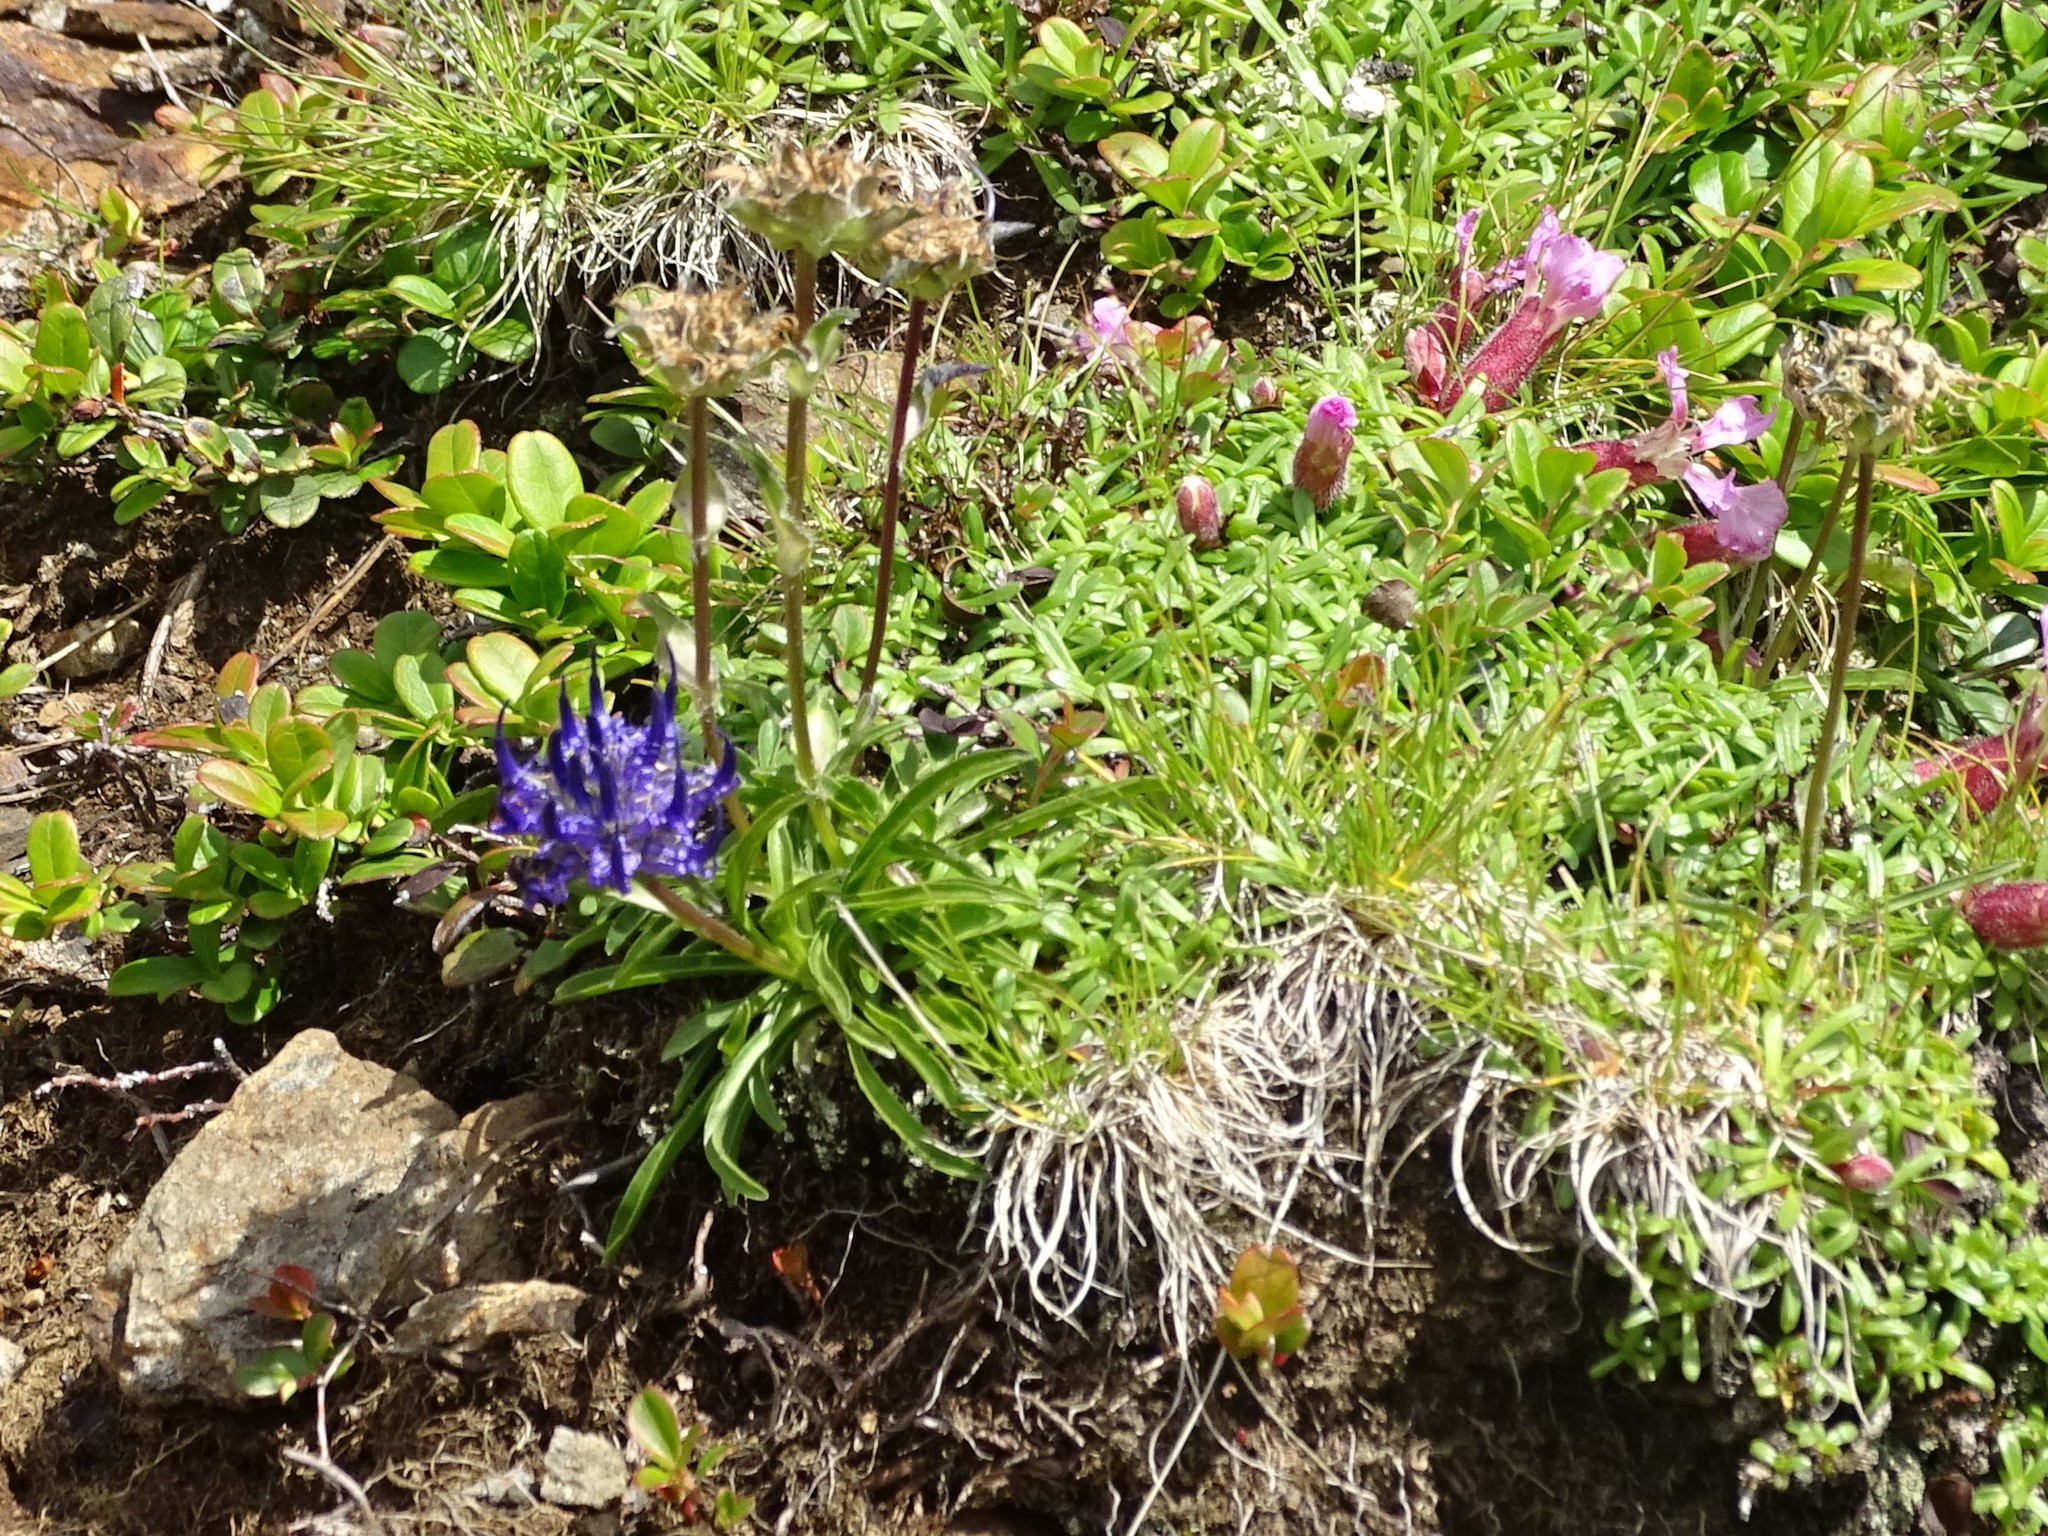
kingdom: Plantae
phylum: Tracheophyta
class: Magnoliopsida
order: Asterales
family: Campanulaceae
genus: Phyteuma
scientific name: Phyteuma confusum
